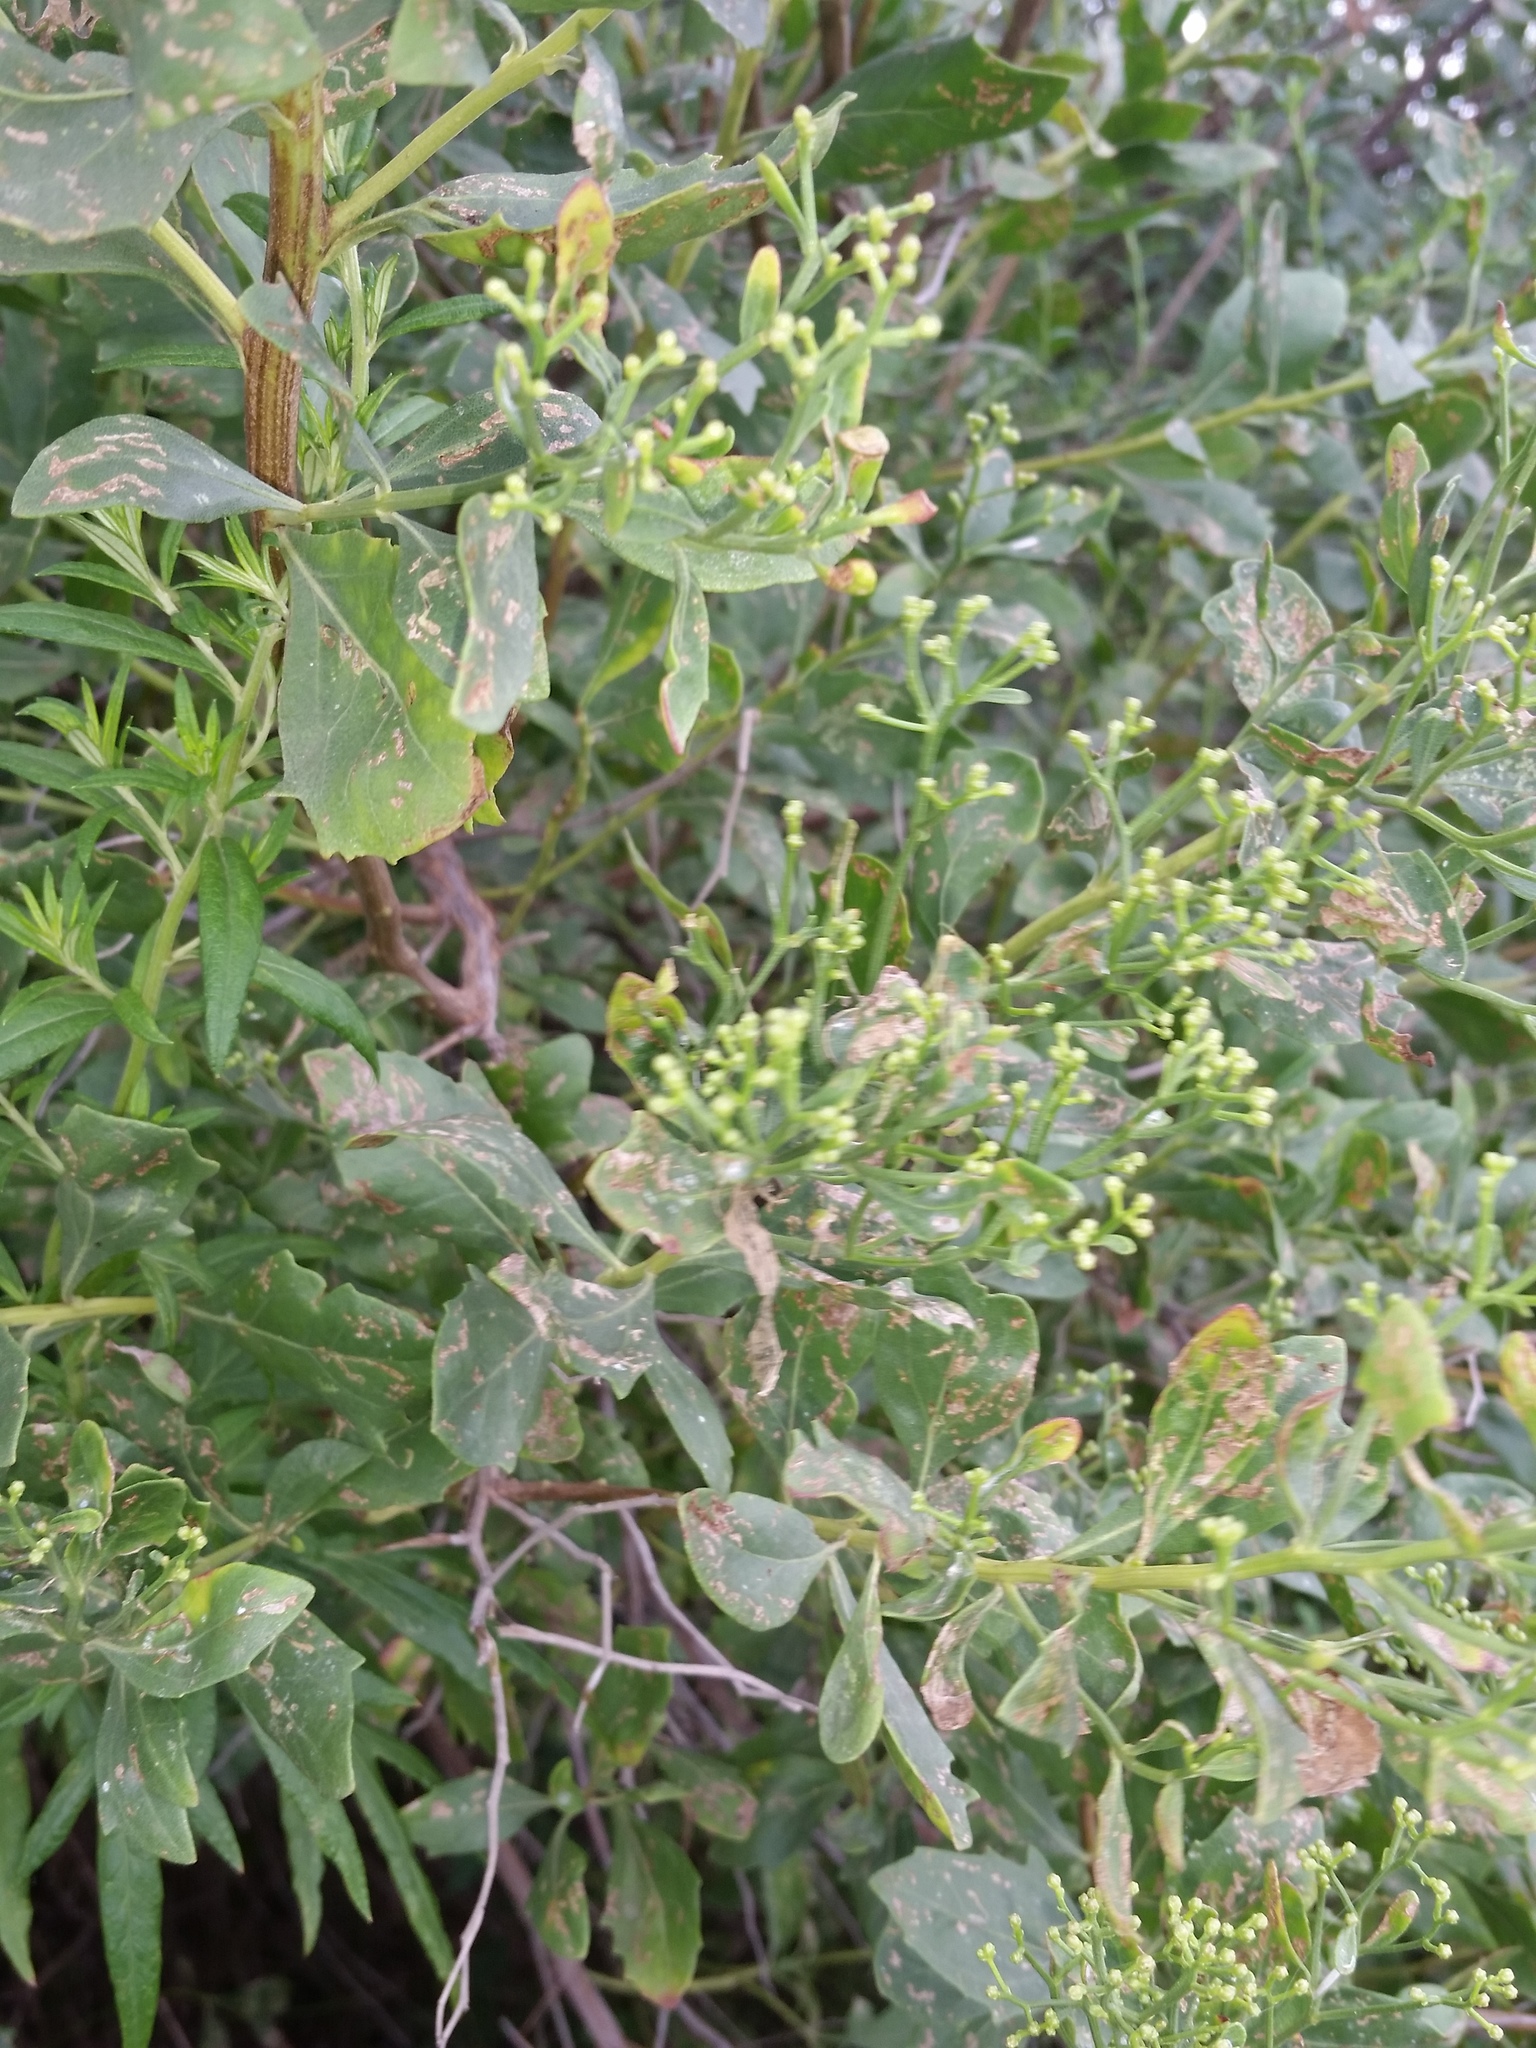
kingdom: Plantae
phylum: Tracheophyta
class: Magnoliopsida
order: Asterales
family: Asteraceae
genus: Baccharis
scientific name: Baccharis halimifolia
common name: Eastern baccharis
